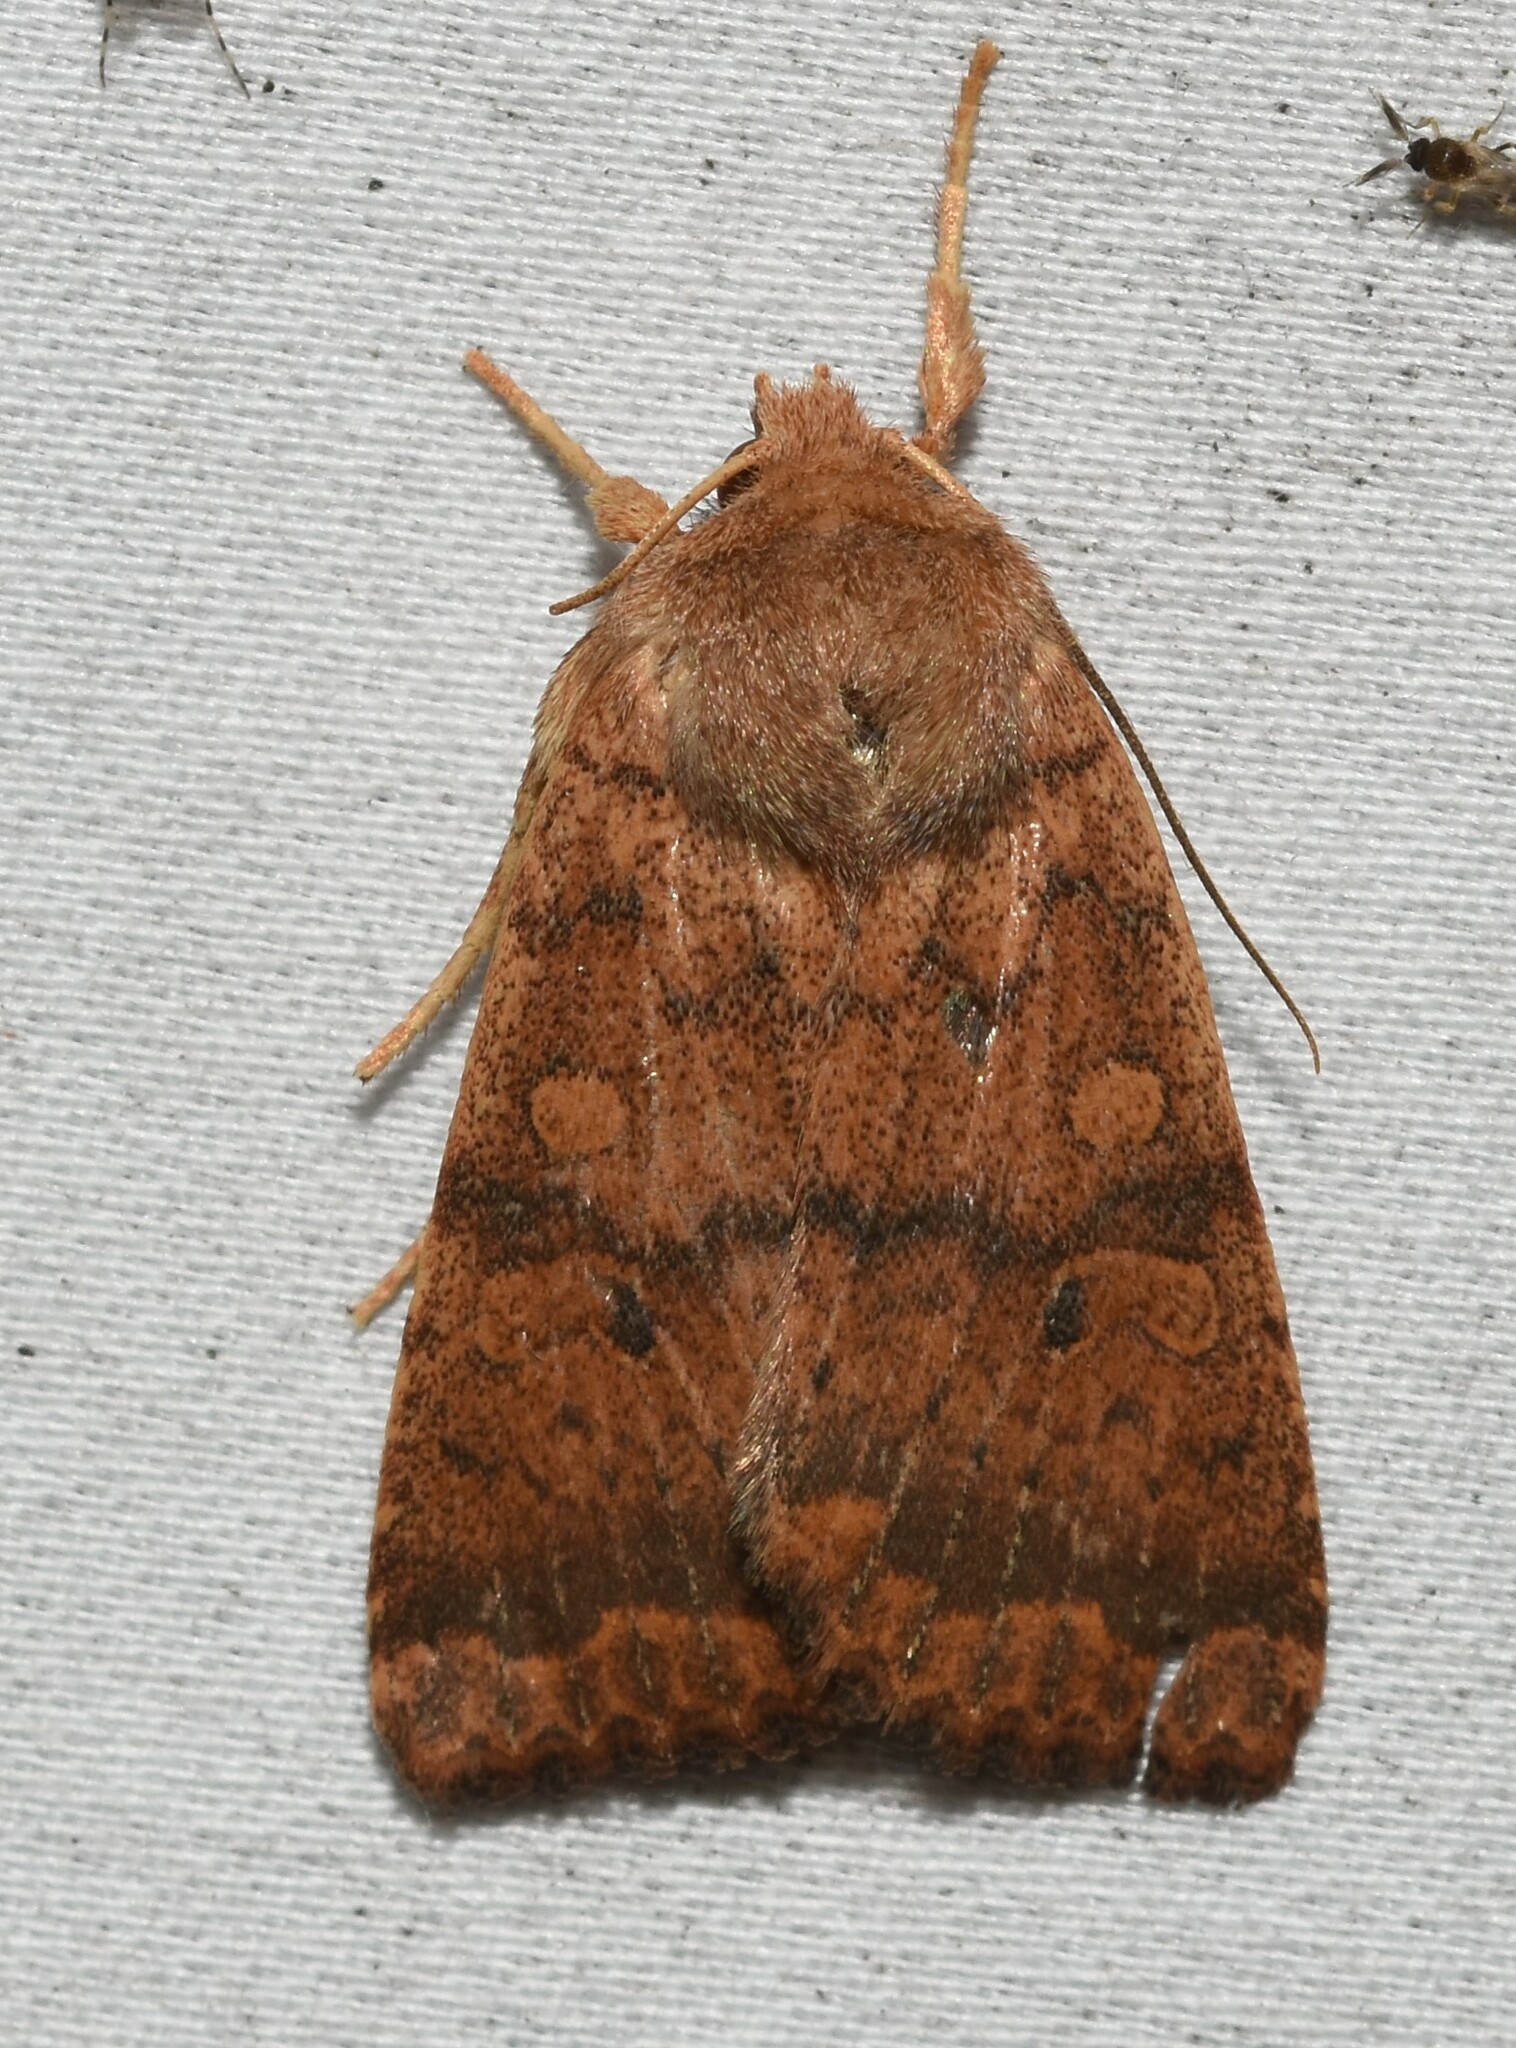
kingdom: Animalia
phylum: Arthropoda
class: Insecta
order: Lepidoptera
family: Noctuidae
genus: Agrochola
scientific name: Agrochola bicolorago
